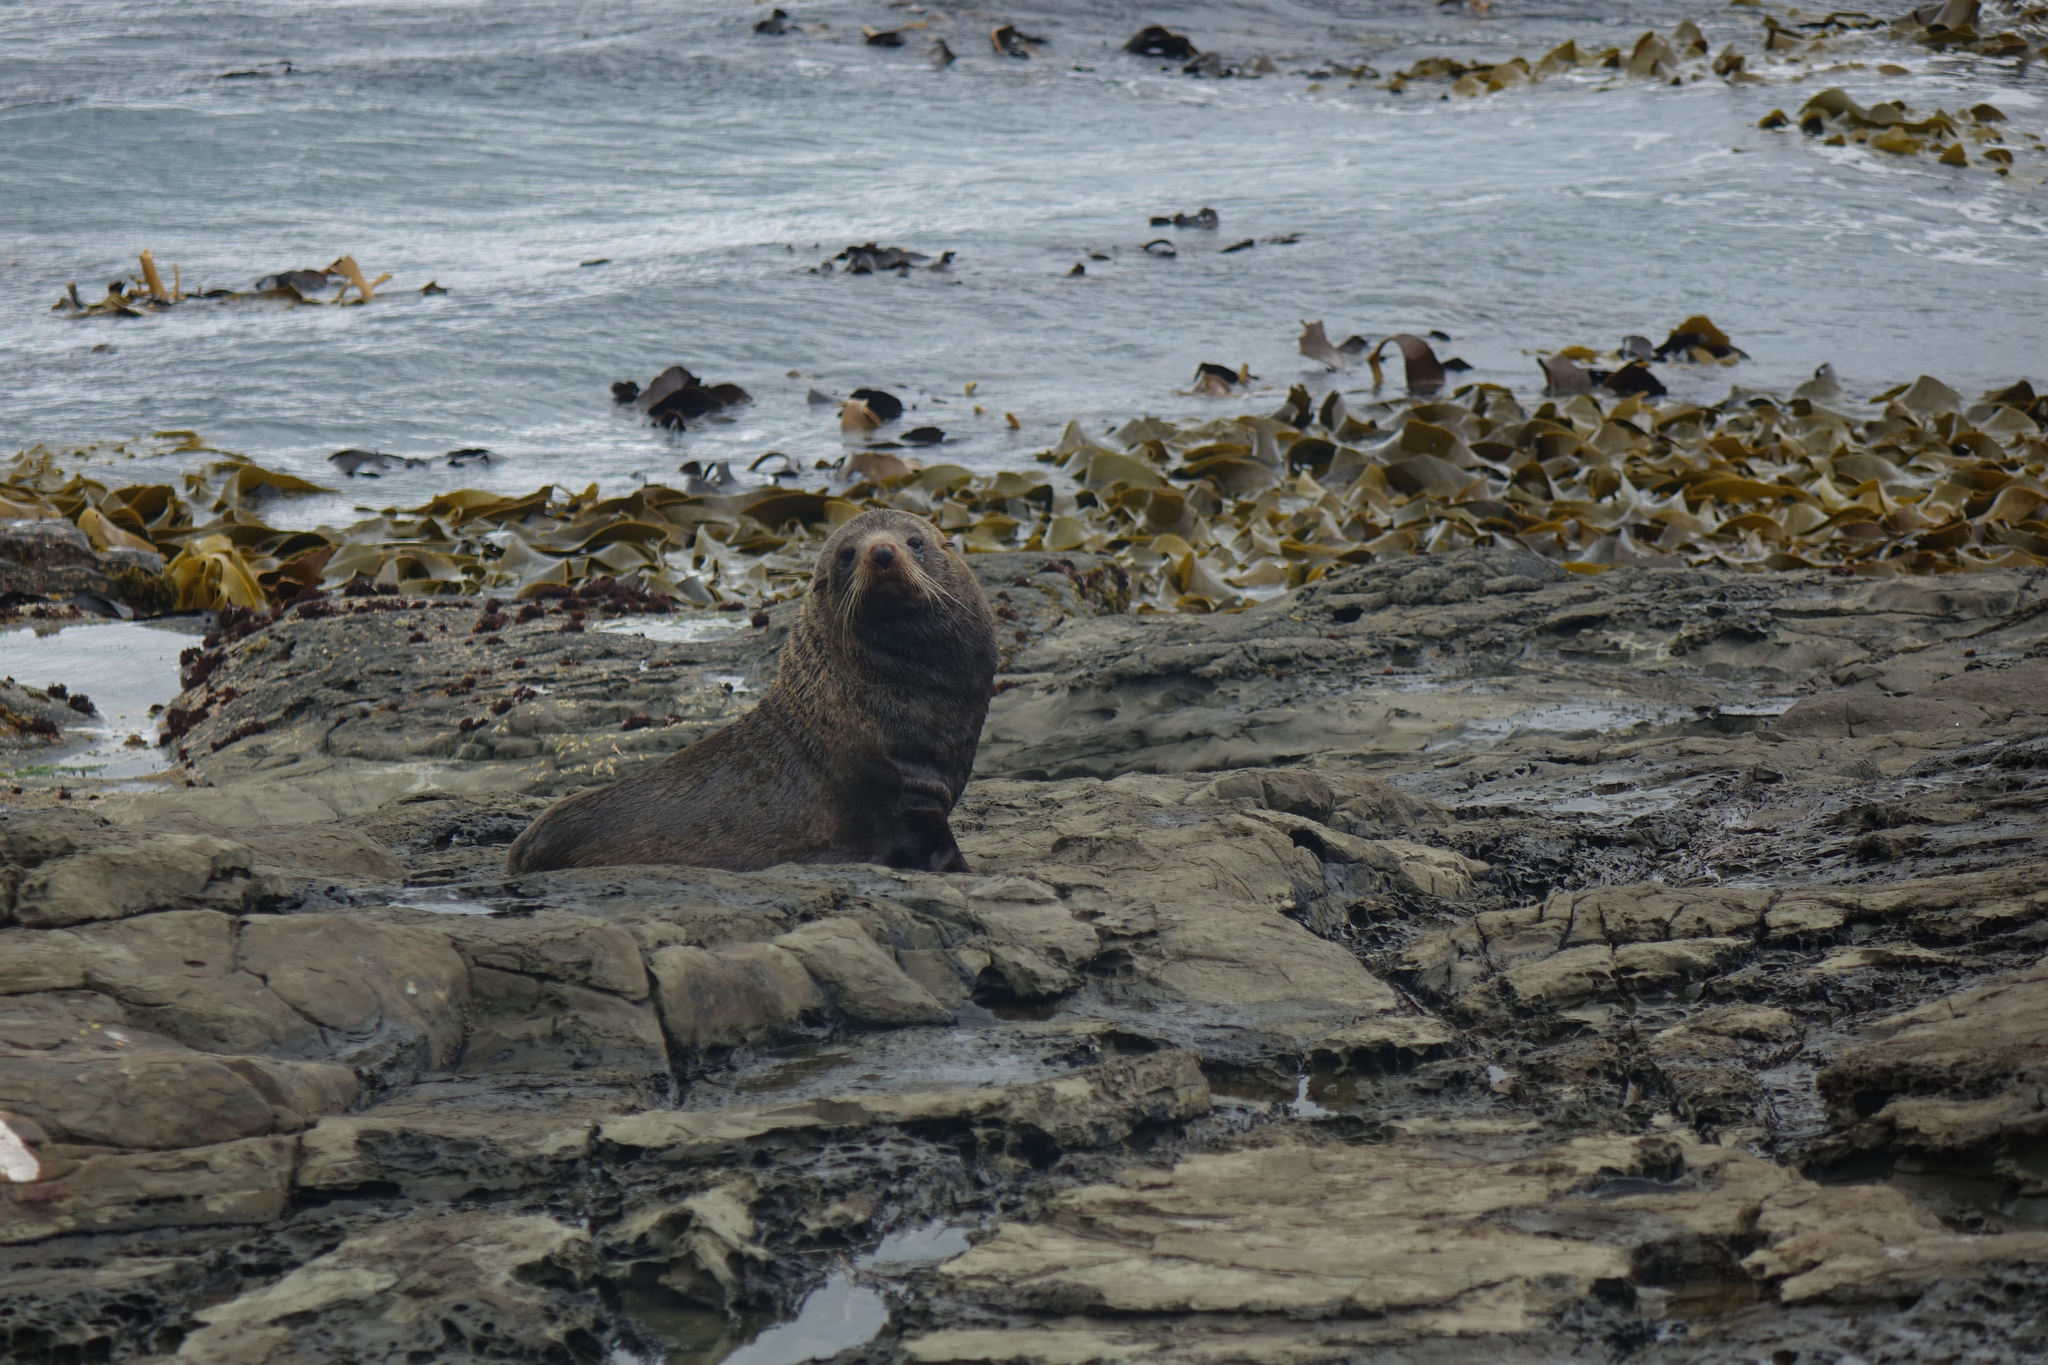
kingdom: Animalia
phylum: Chordata
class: Mammalia
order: Carnivora
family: Otariidae
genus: Arctocephalus
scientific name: Arctocephalus forsteri
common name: New zealand fur seal
